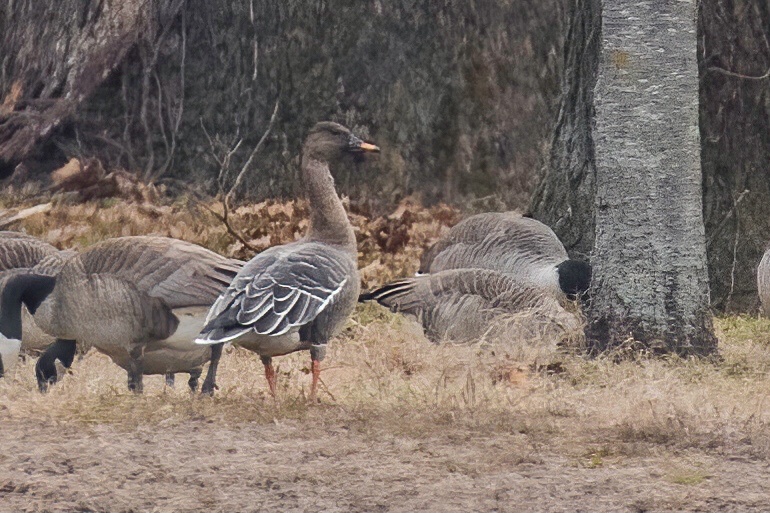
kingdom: Animalia
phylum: Chordata
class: Aves
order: Anseriformes
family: Anatidae
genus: Anser
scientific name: Anser serrirostris
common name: Tundra bean goose
